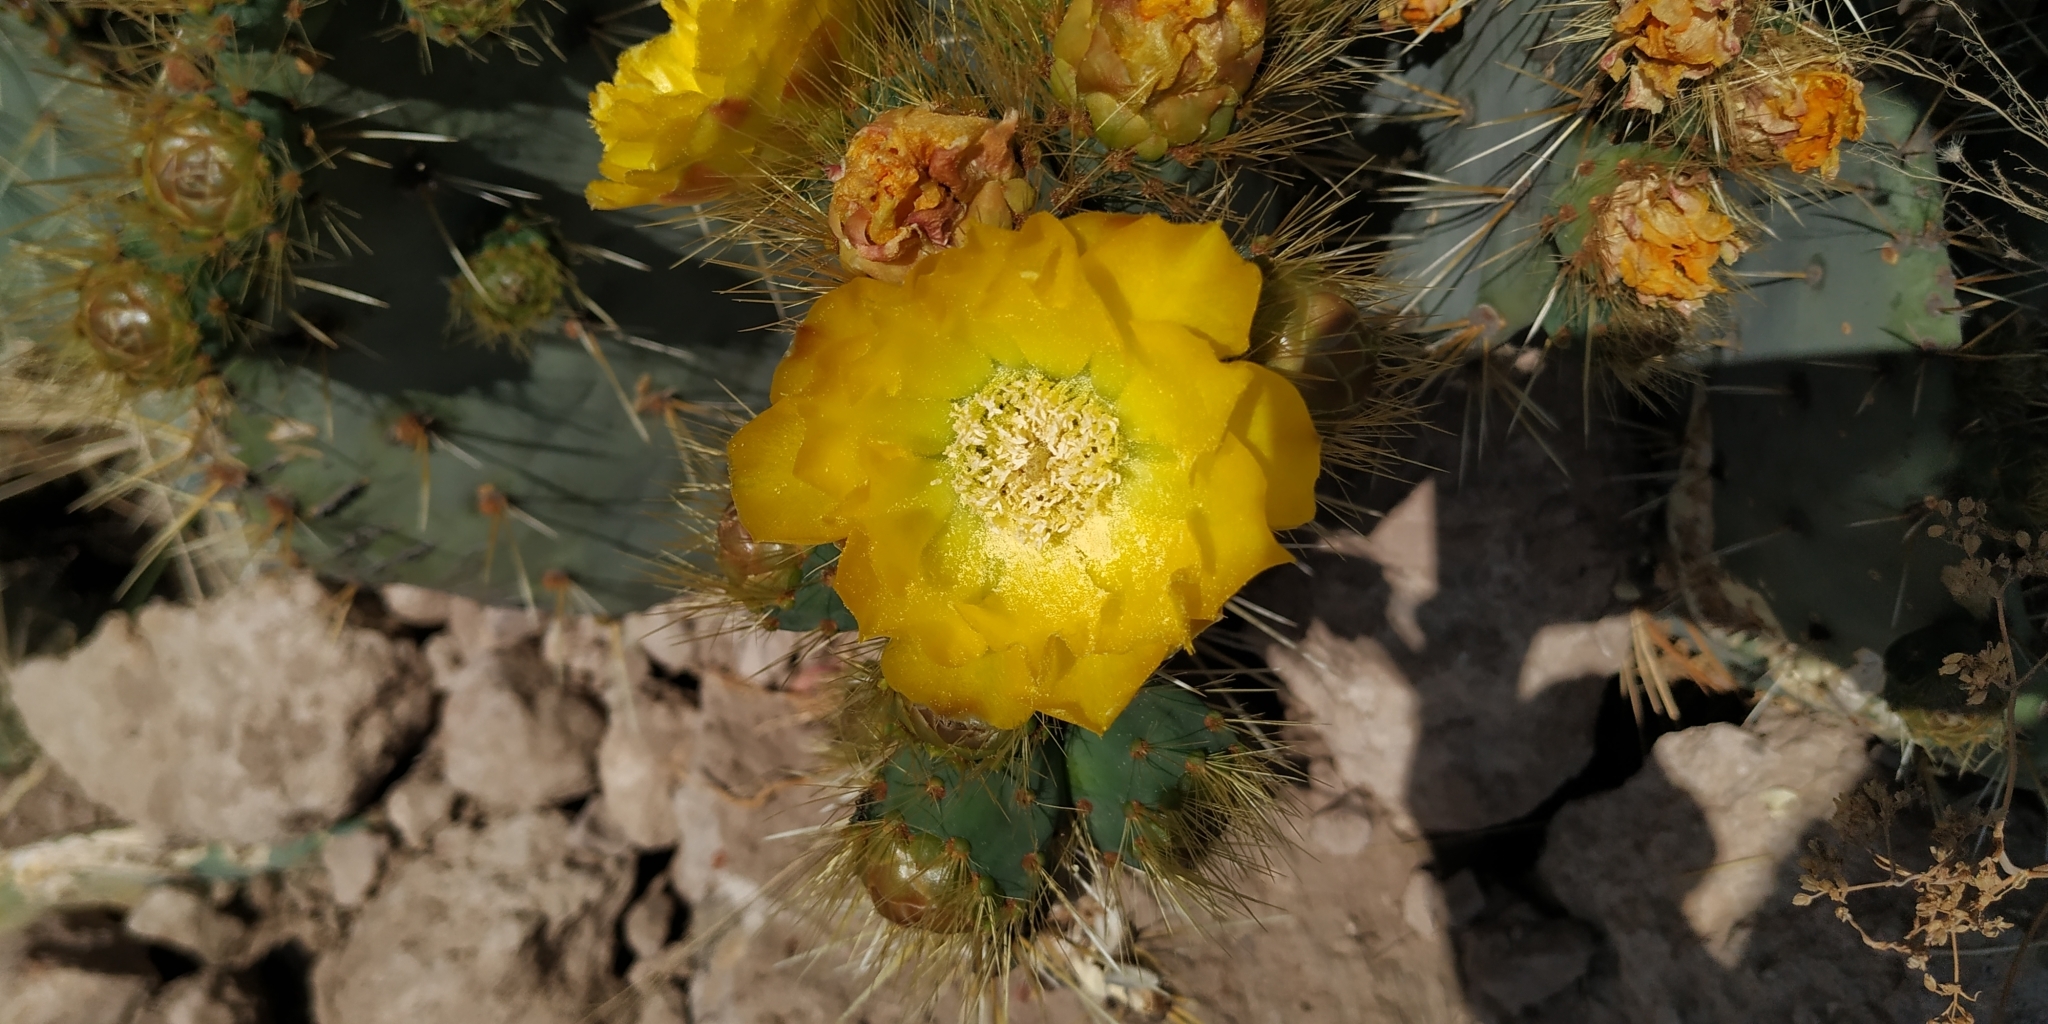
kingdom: Plantae
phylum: Tracheophyta
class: Magnoliopsida
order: Caryophyllales
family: Cactaceae
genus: Opuntia
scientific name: Opuntia robusta
